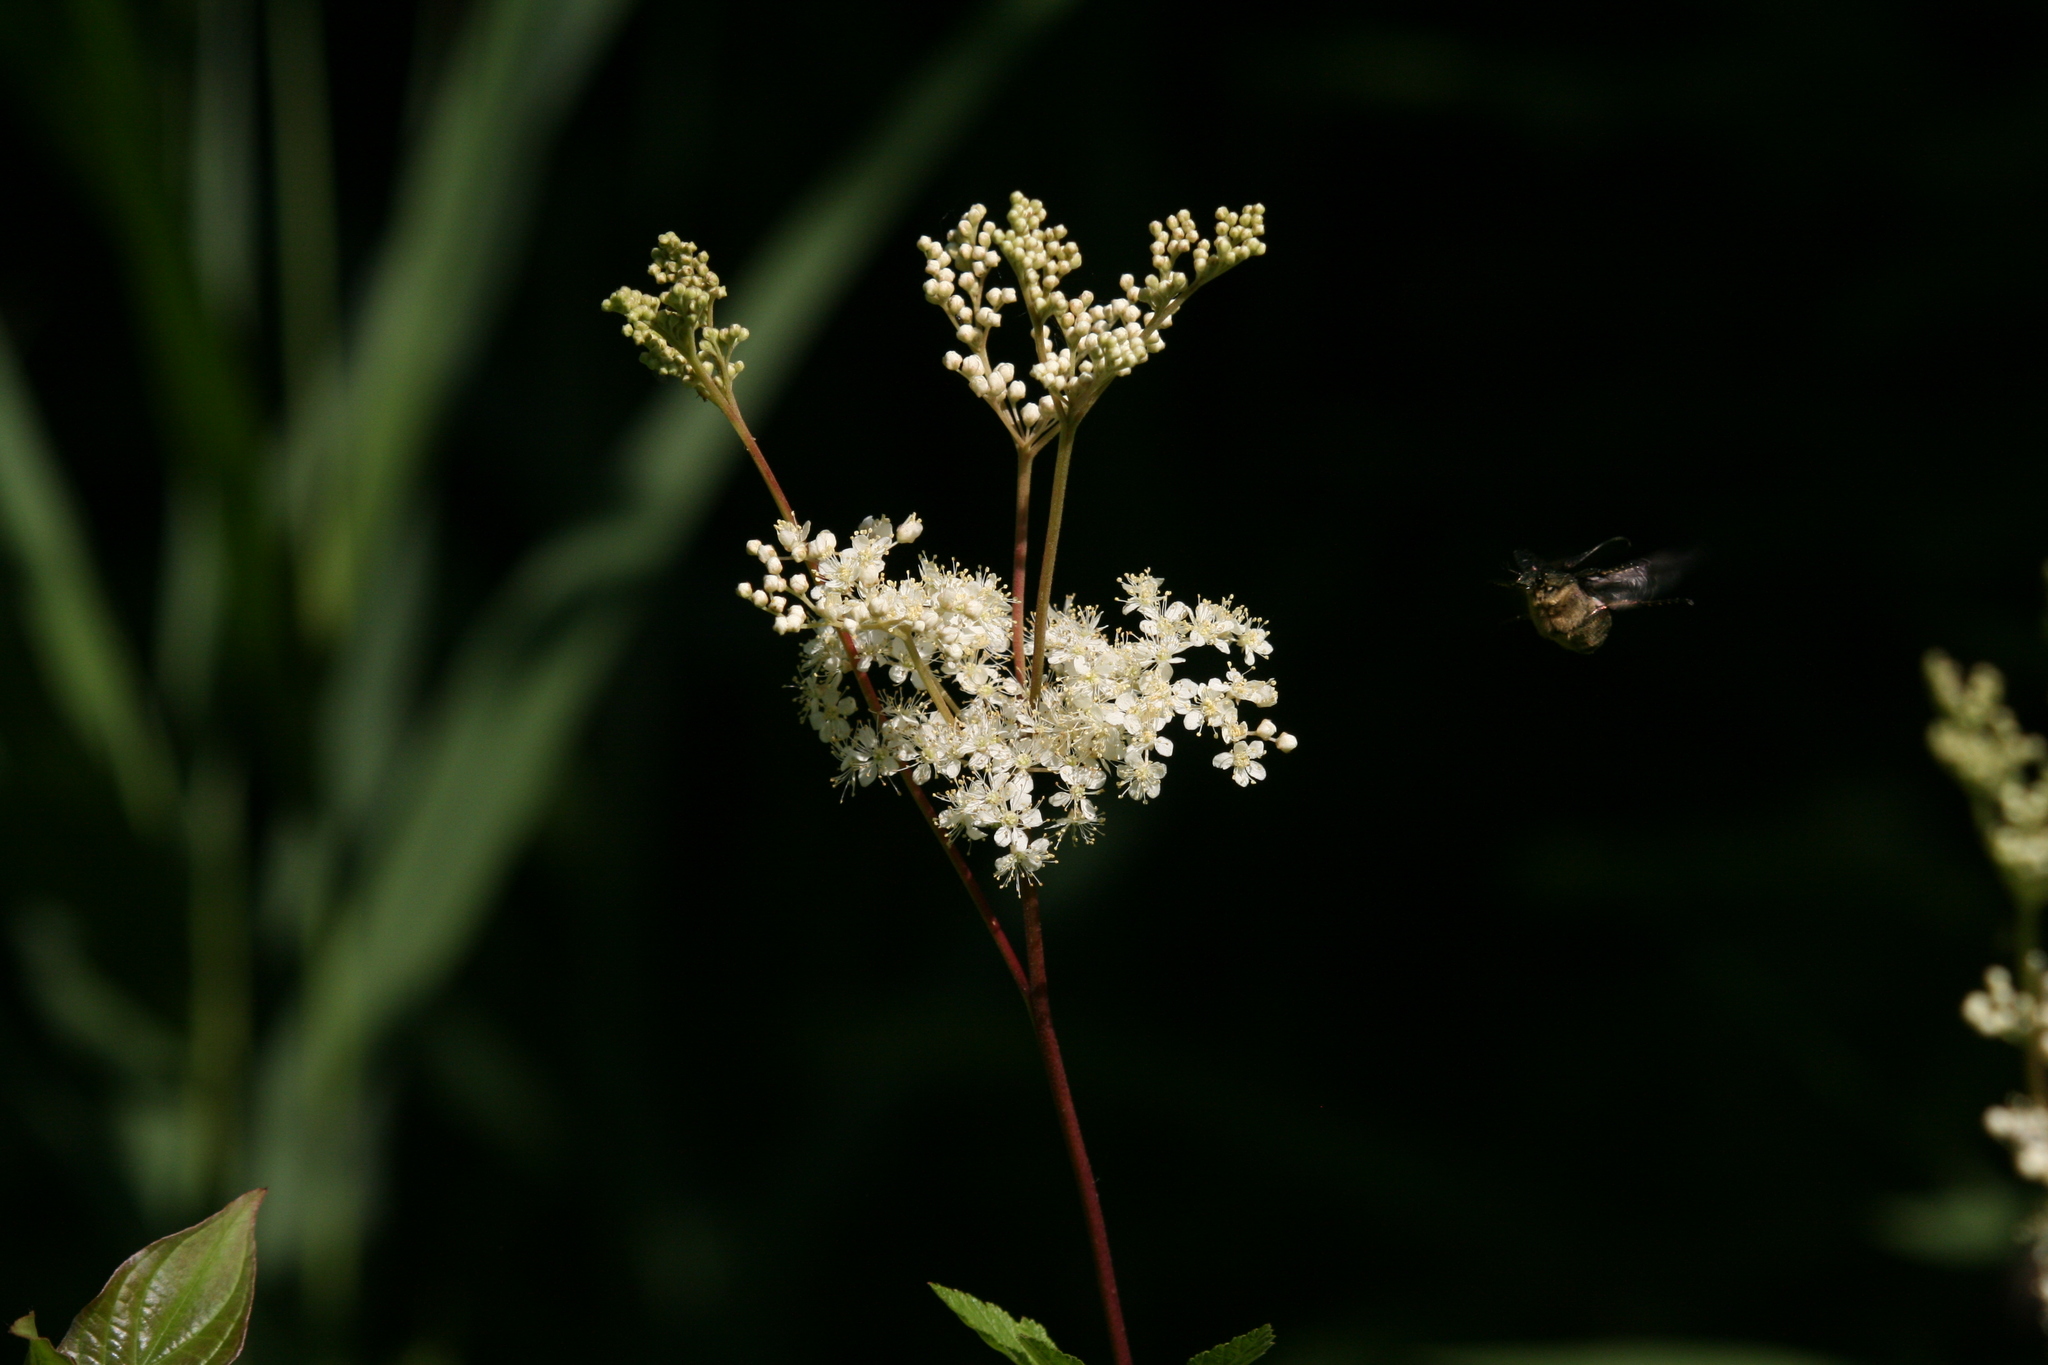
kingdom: Plantae
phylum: Tracheophyta
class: Magnoliopsida
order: Rosales
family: Rosaceae
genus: Filipendula
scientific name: Filipendula ulmaria
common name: Meadowsweet
